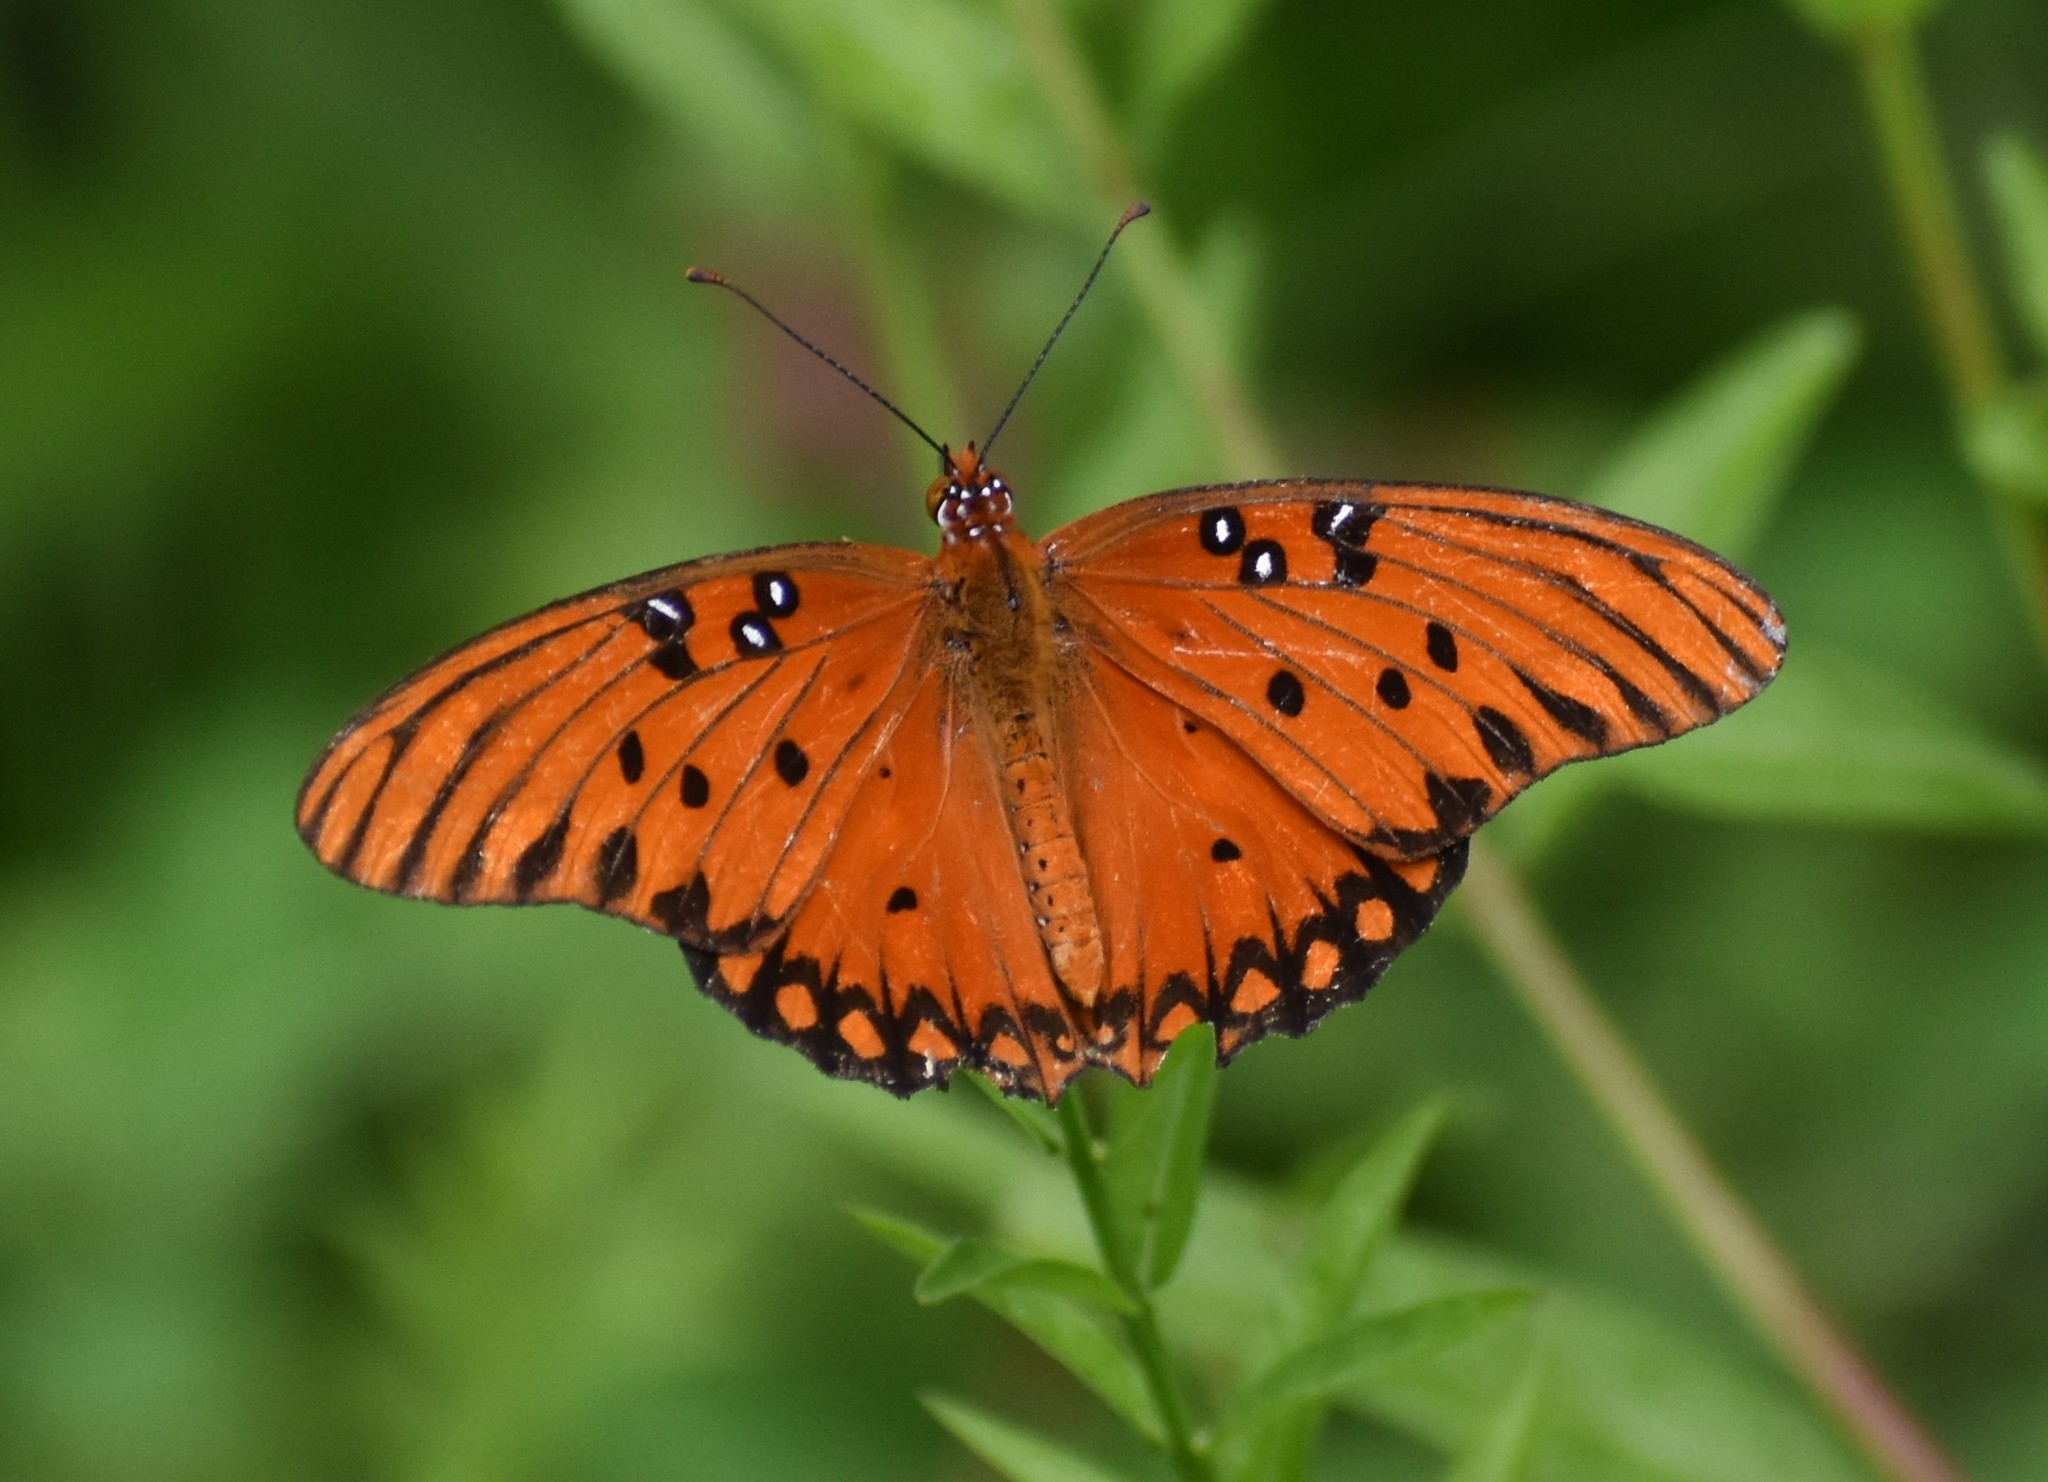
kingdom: Animalia
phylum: Arthropoda
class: Insecta
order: Lepidoptera
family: Nymphalidae
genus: Dione
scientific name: Dione vanillae
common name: Gulf fritillary
